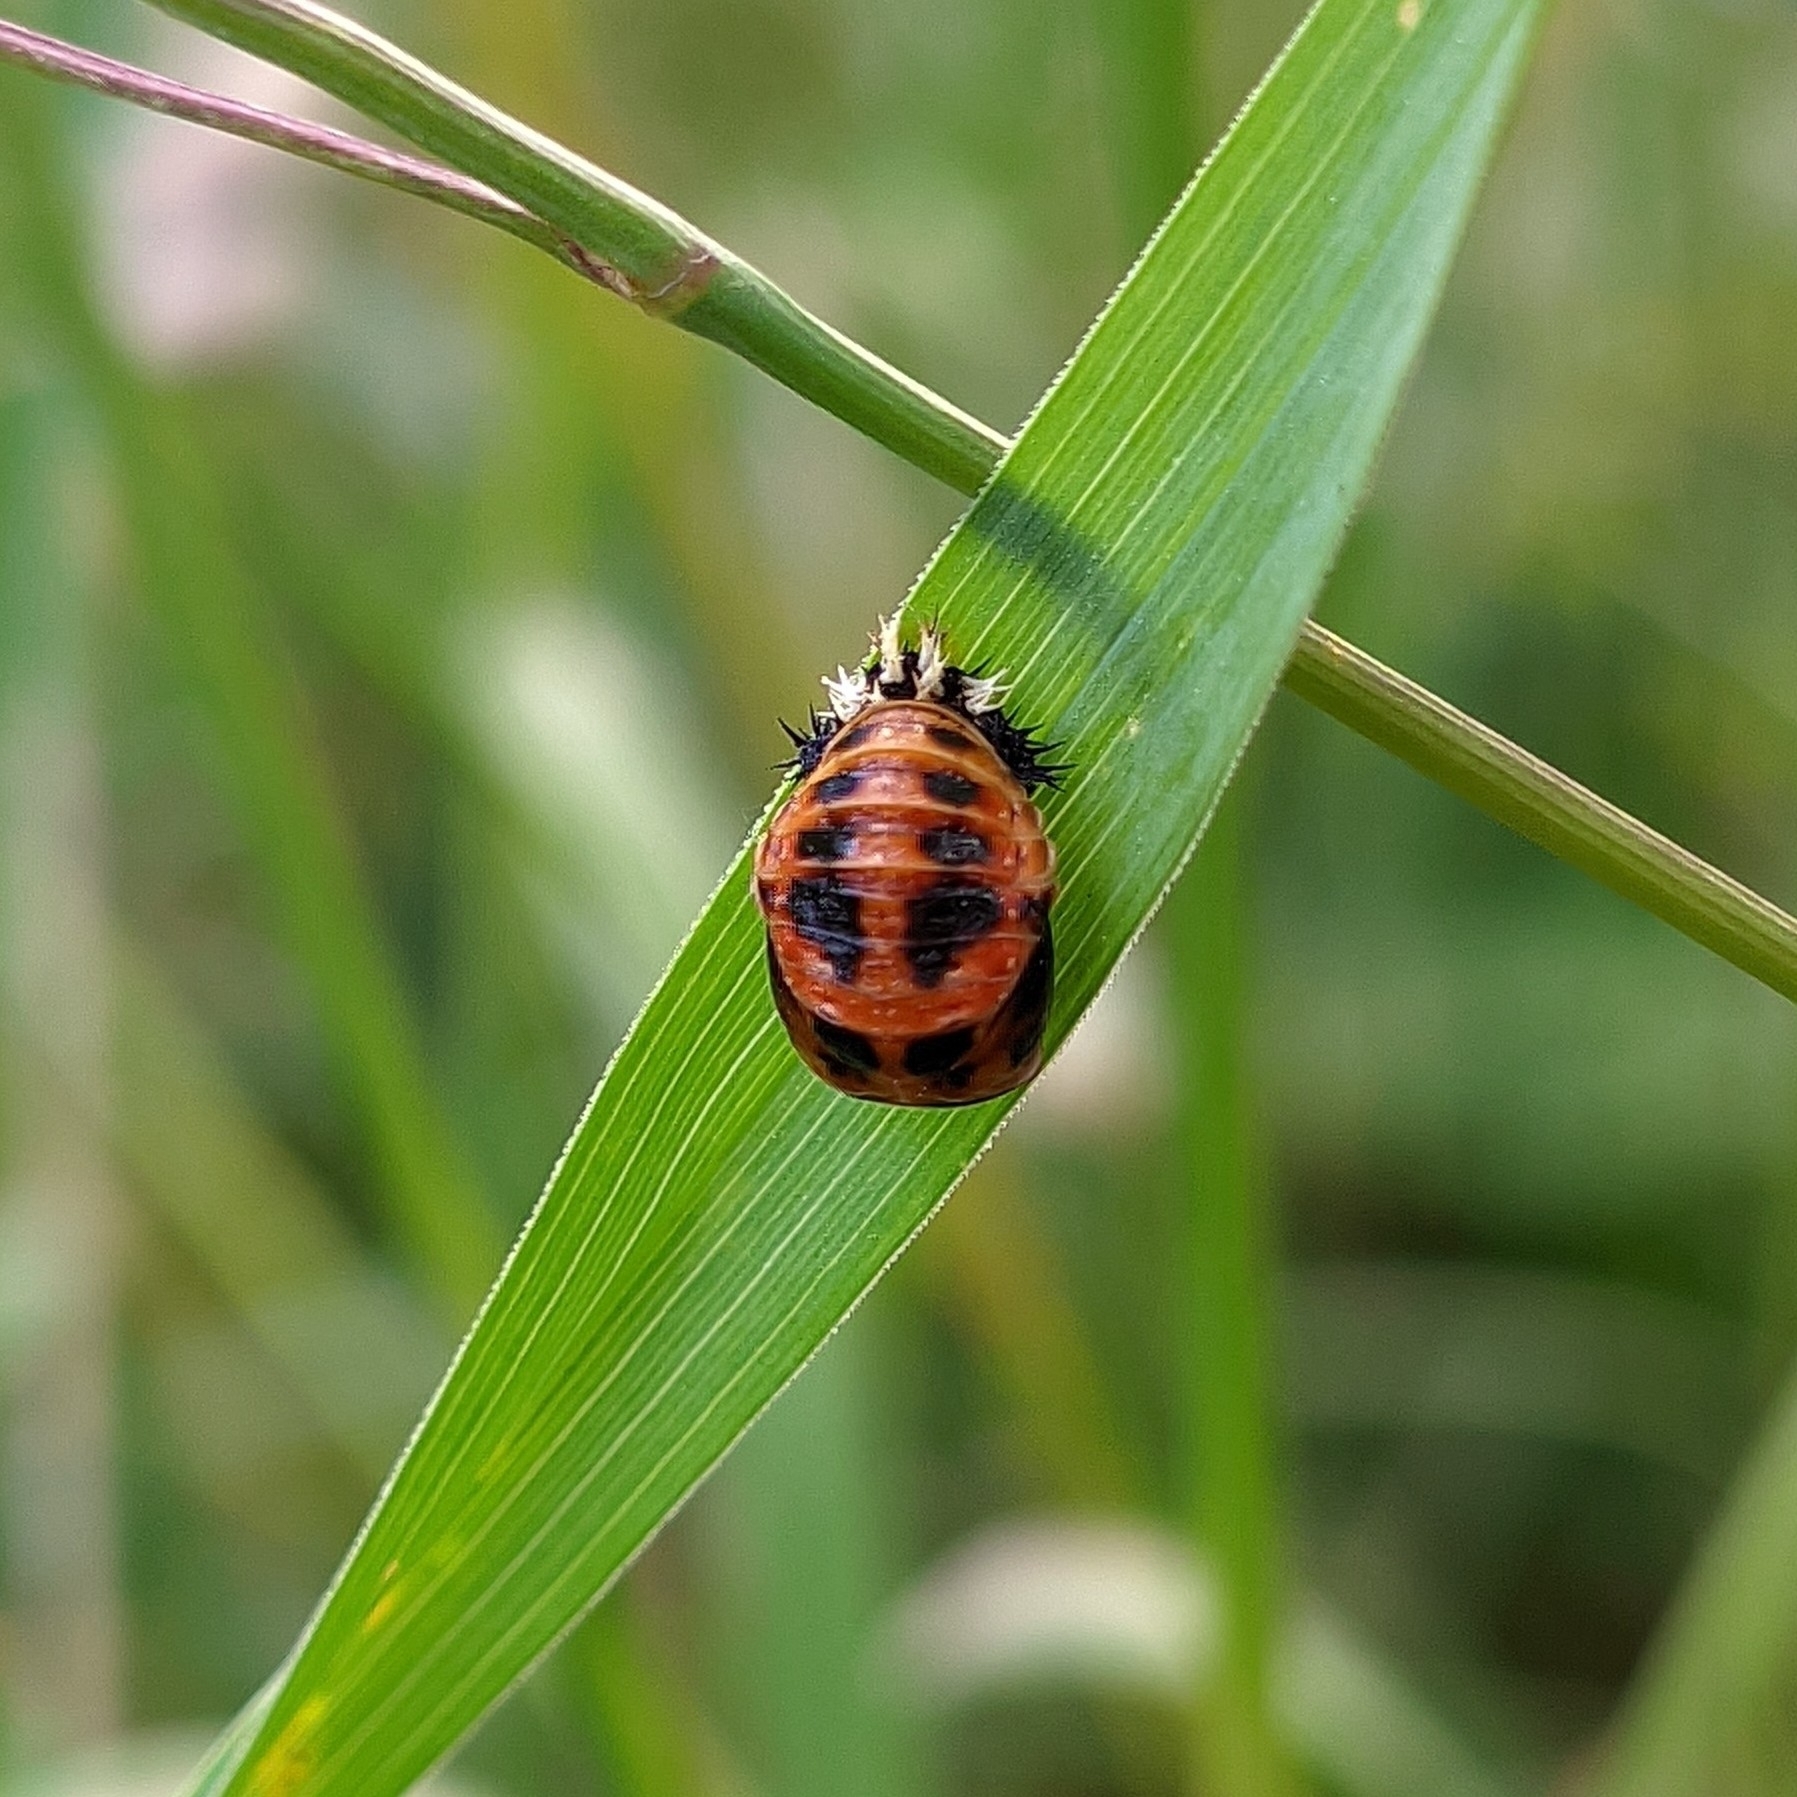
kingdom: Animalia
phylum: Arthropoda
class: Insecta
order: Coleoptera
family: Coccinellidae
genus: Harmonia
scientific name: Harmonia axyridis
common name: Harlequin ladybird
